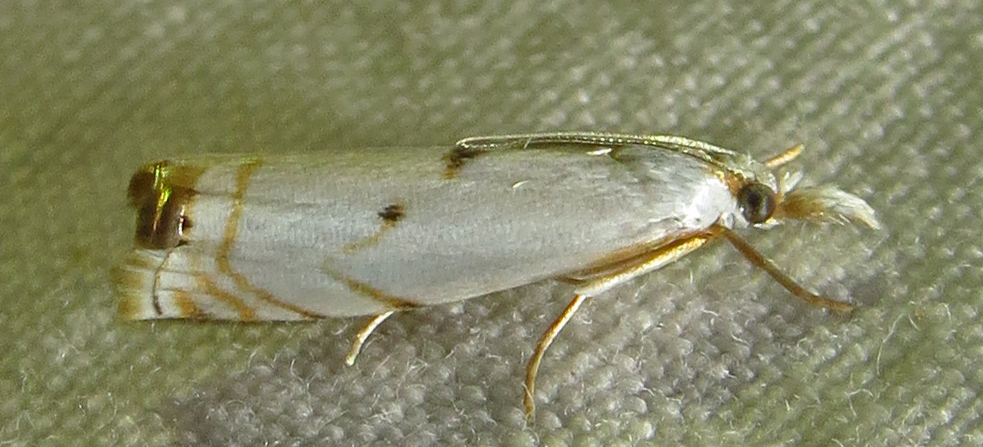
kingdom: Animalia
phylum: Arthropoda
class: Insecta
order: Lepidoptera
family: Crambidae
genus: Microcrambus
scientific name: Microcrambus biguttellus
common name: Gold-stripe grass-veneer moth
